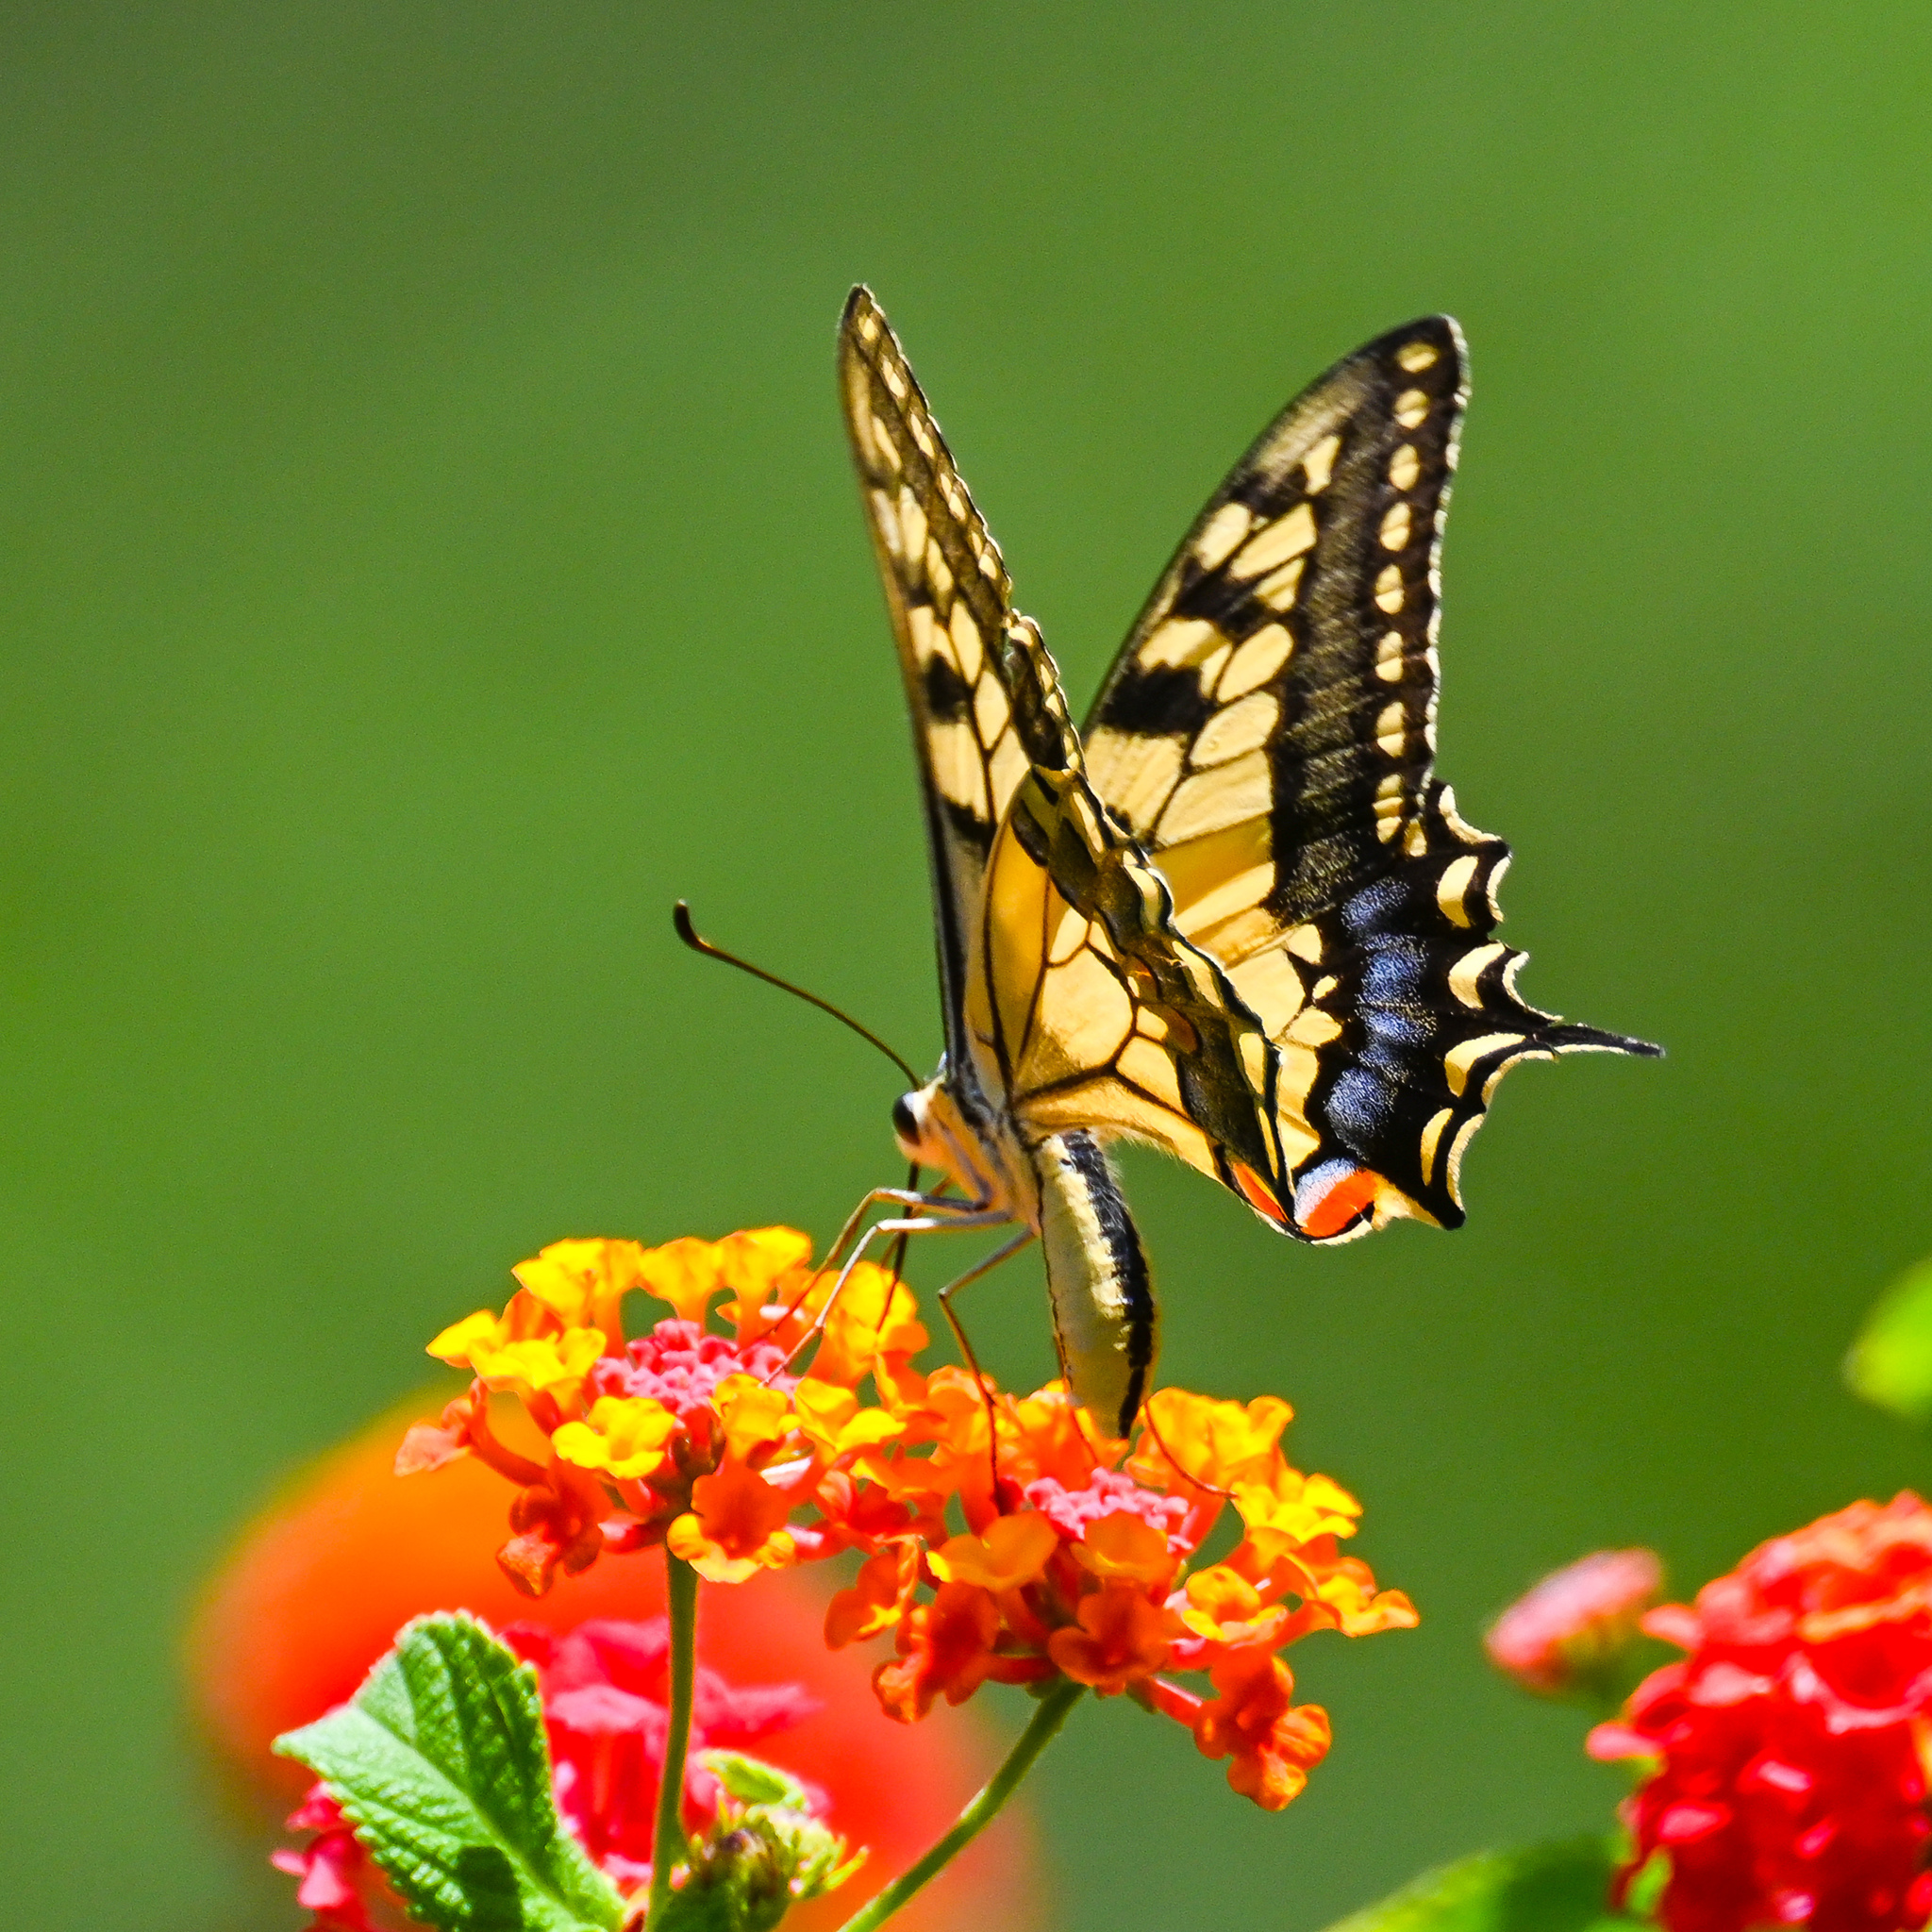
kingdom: Animalia
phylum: Arthropoda
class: Insecta
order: Lepidoptera
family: Papilionidae
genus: Papilio
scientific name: Papilio machaon
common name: Swallowtail
